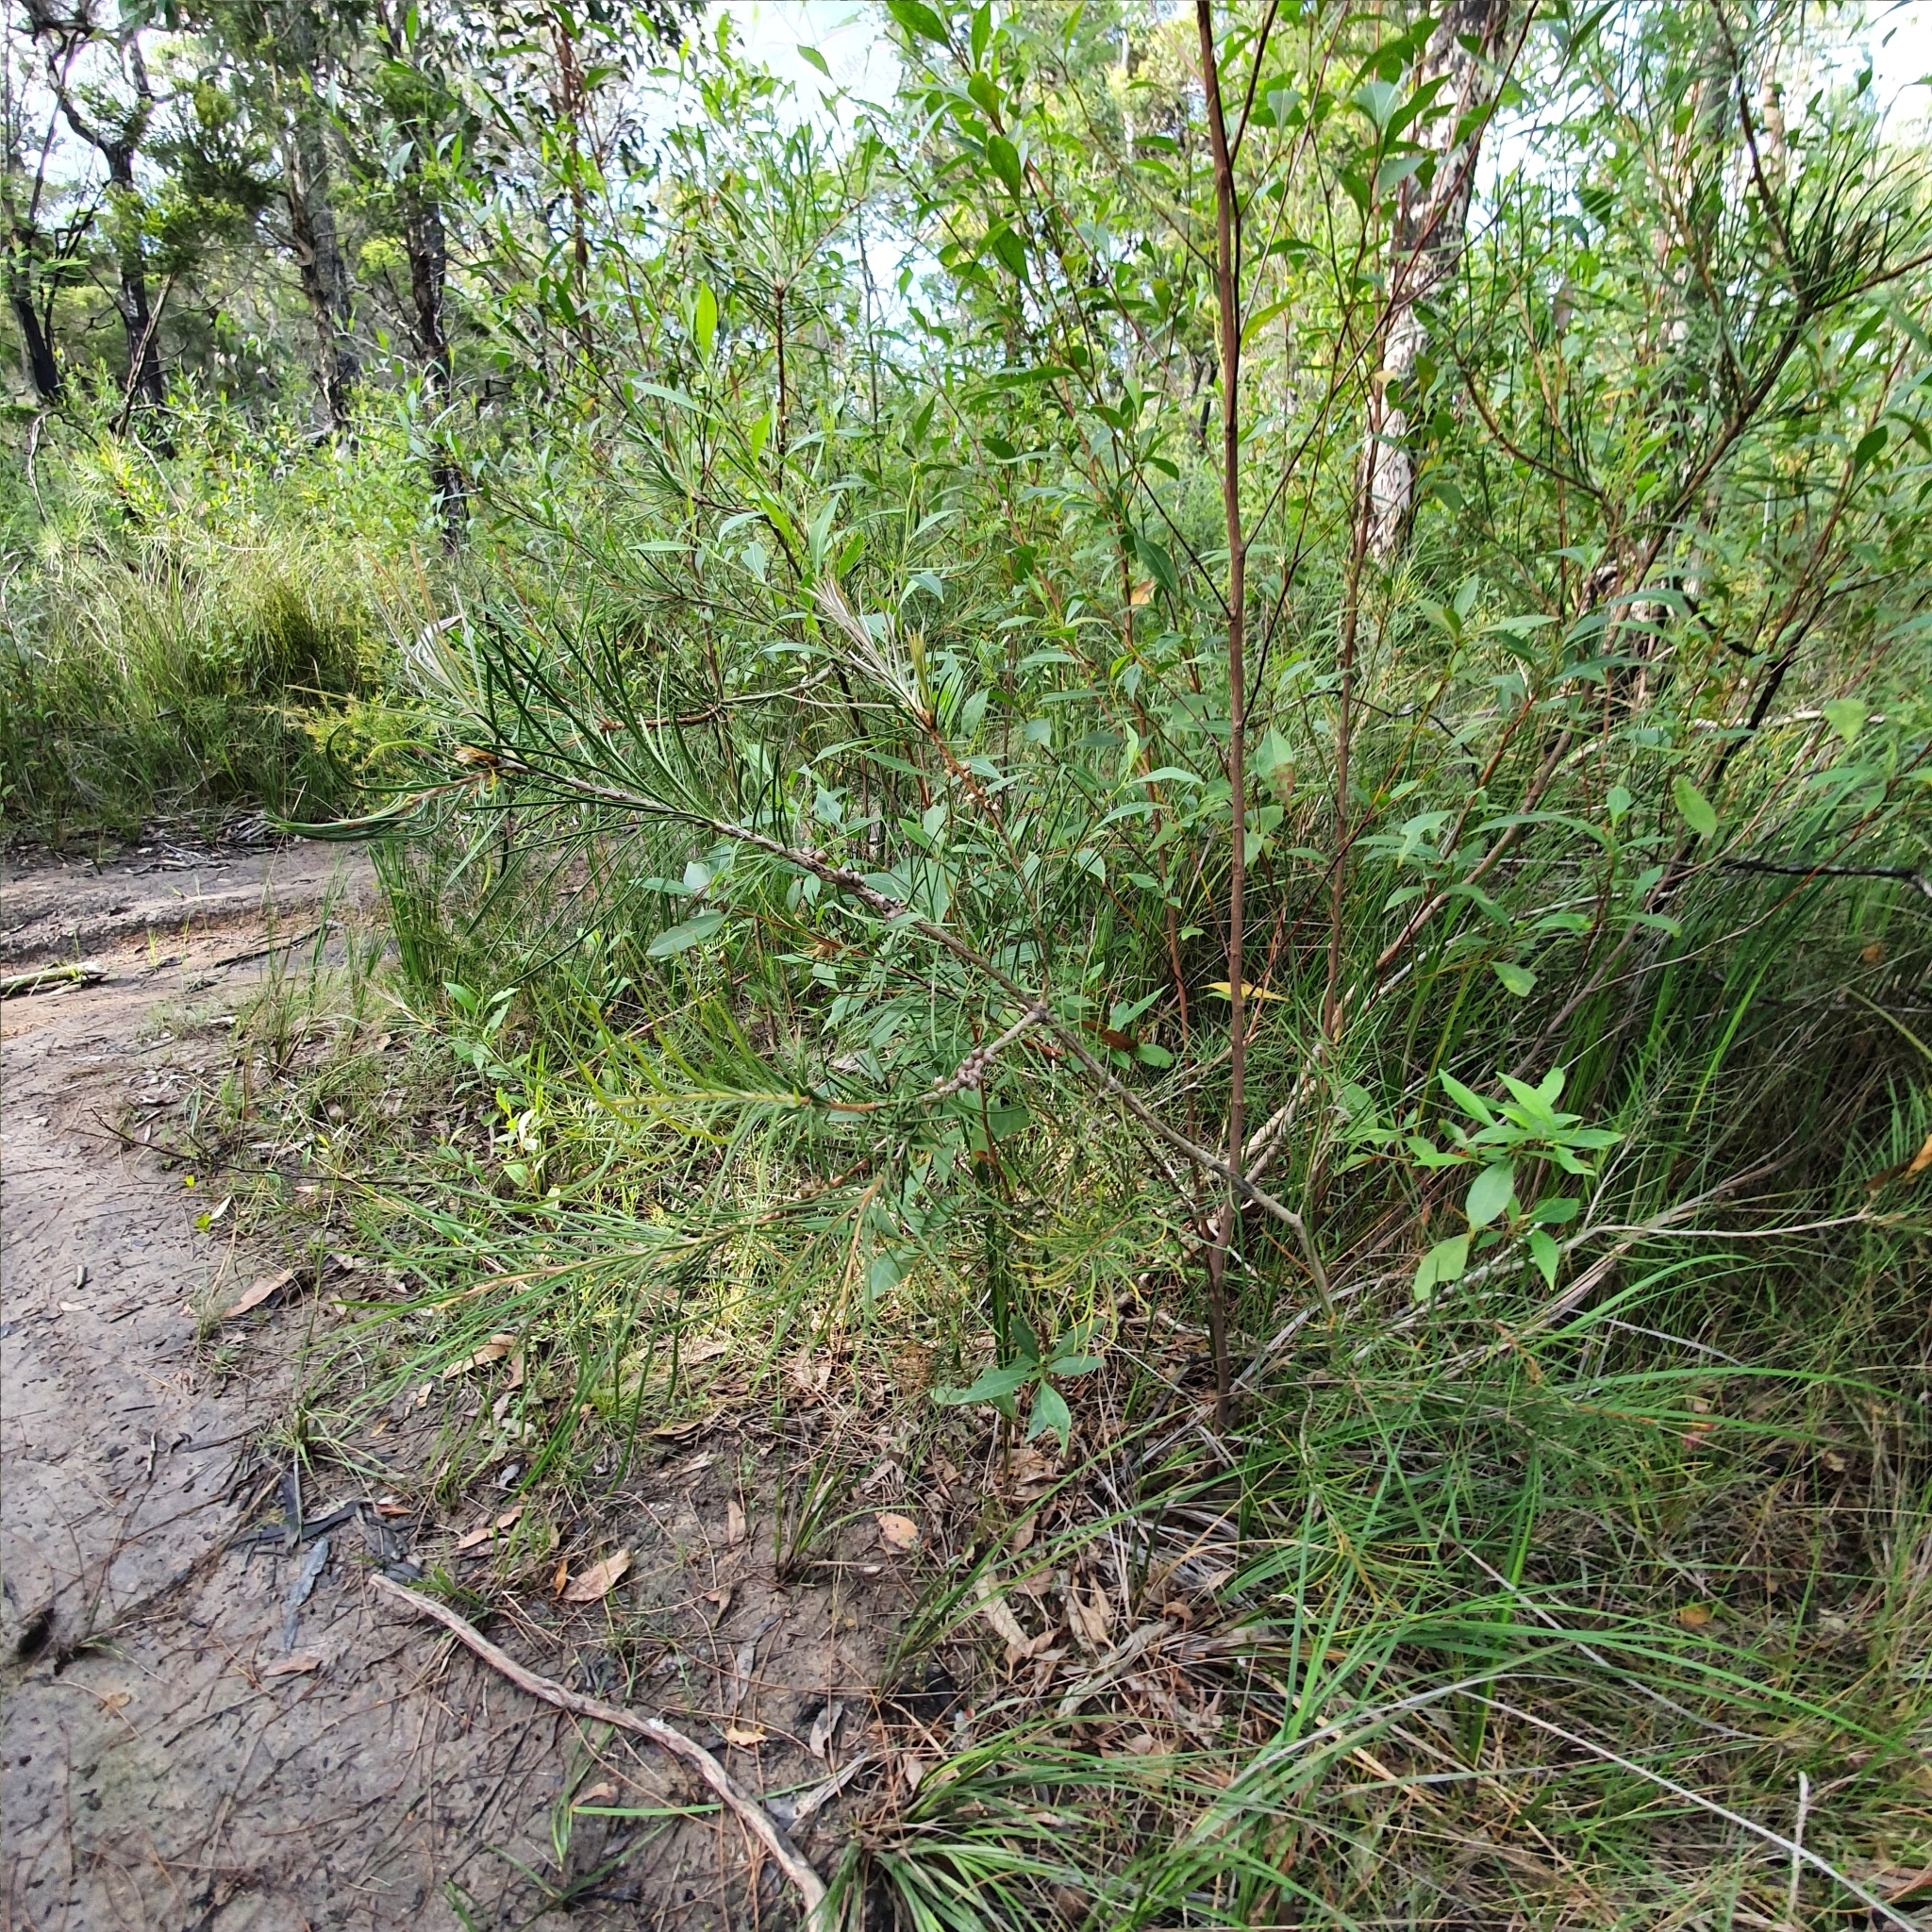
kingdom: Plantae
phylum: Tracheophyta
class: Magnoliopsida
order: Myrtales
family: Myrtaceae
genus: Callistemon
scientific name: Callistemon linearis
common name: Narrow-leaf bottlebrush
